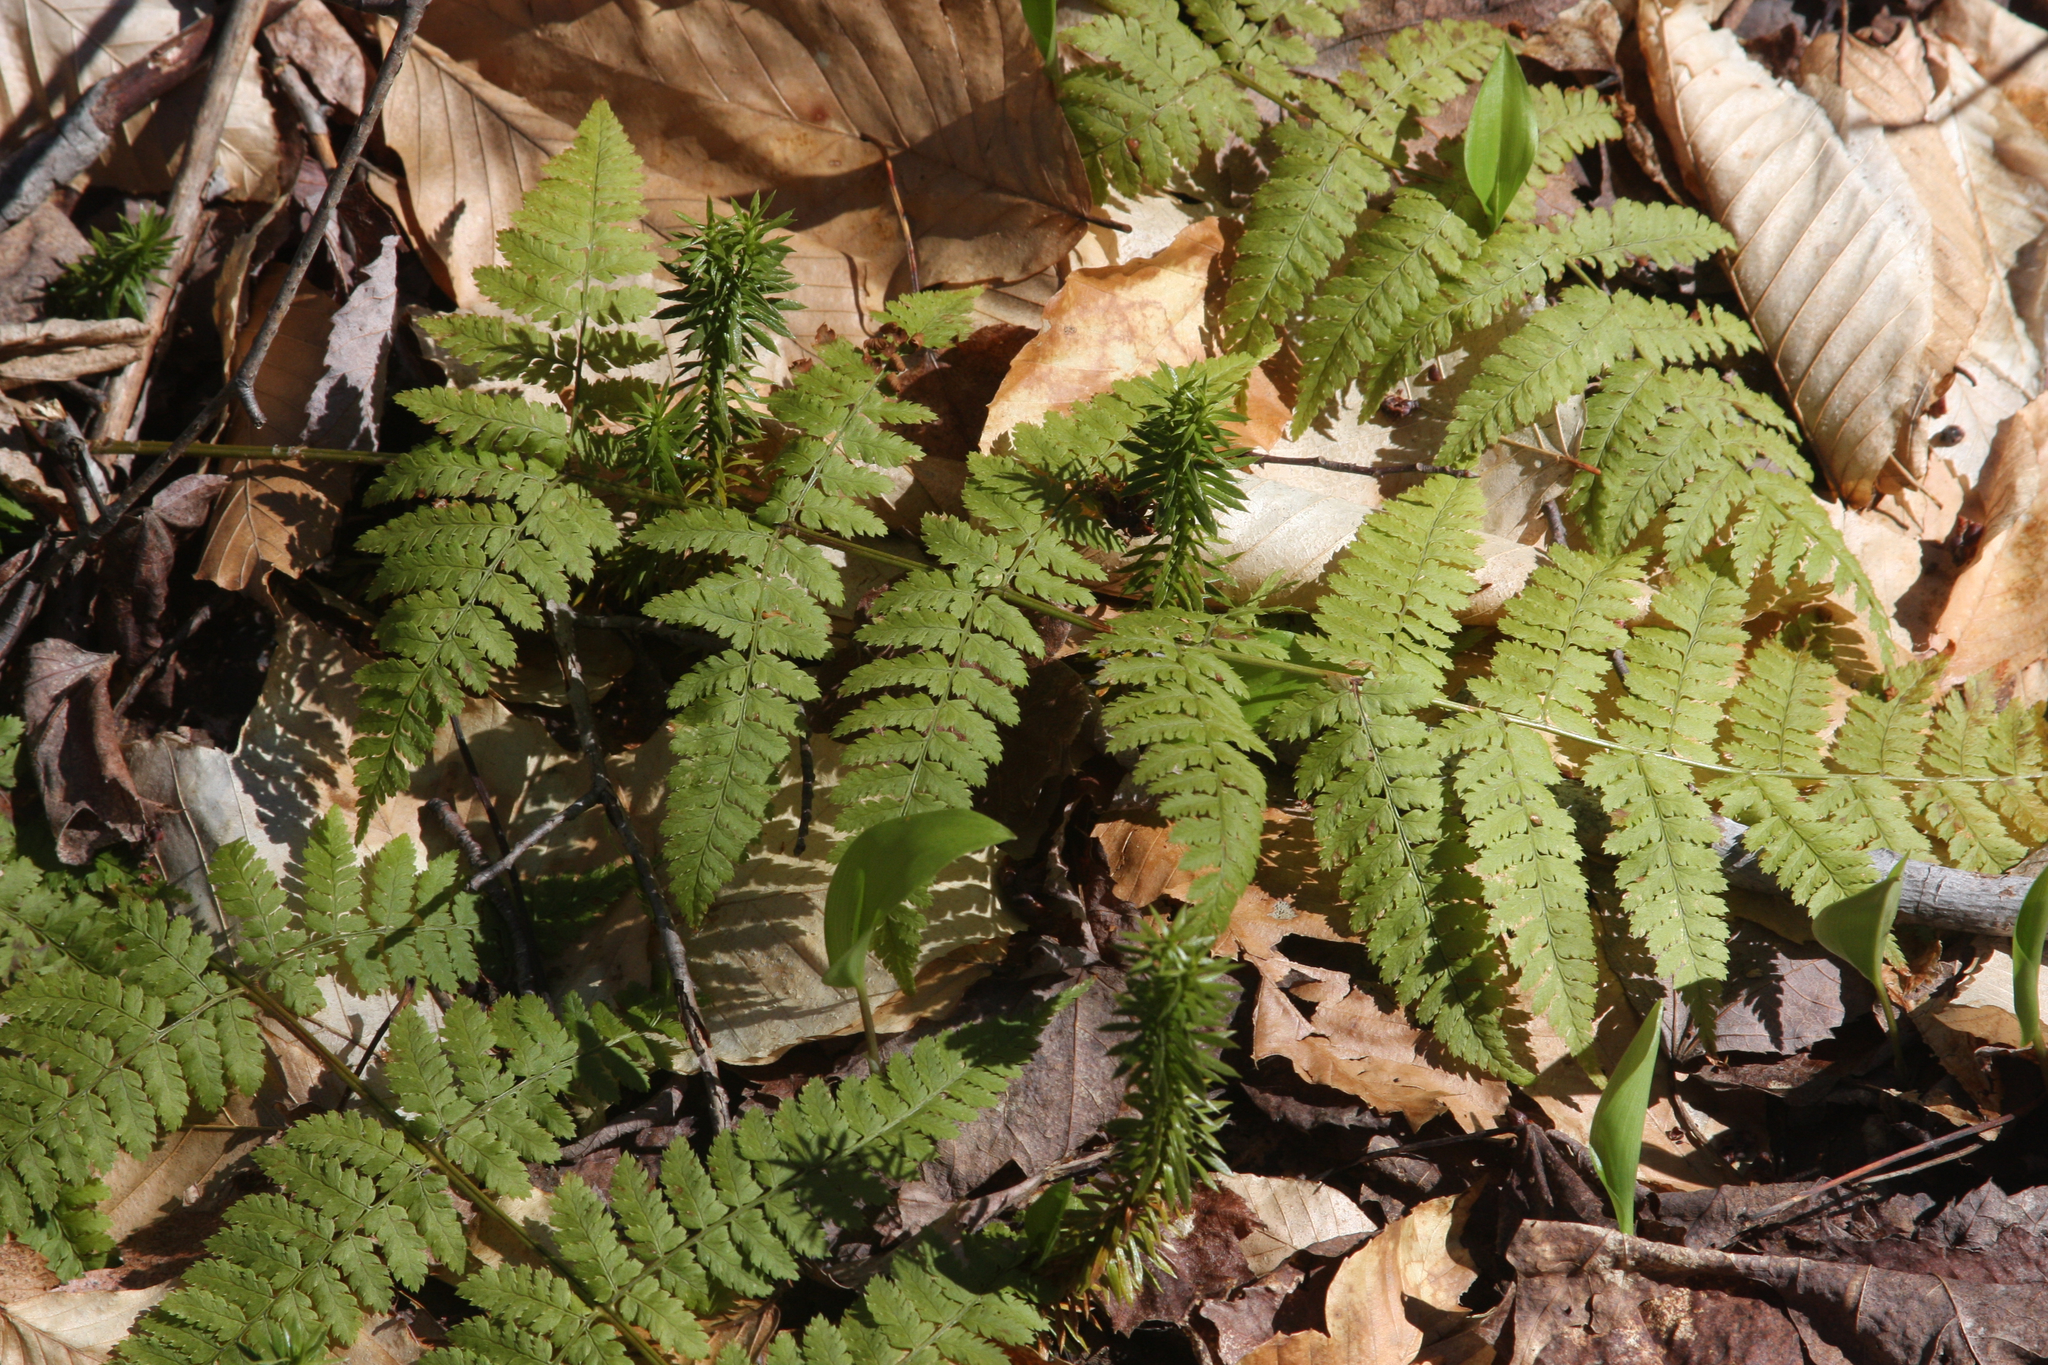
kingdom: Plantae
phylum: Tracheophyta
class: Lycopodiopsida
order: Lycopodiales
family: Lycopodiaceae
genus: Spinulum
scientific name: Spinulum annotinum
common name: Interrupted club-moss
